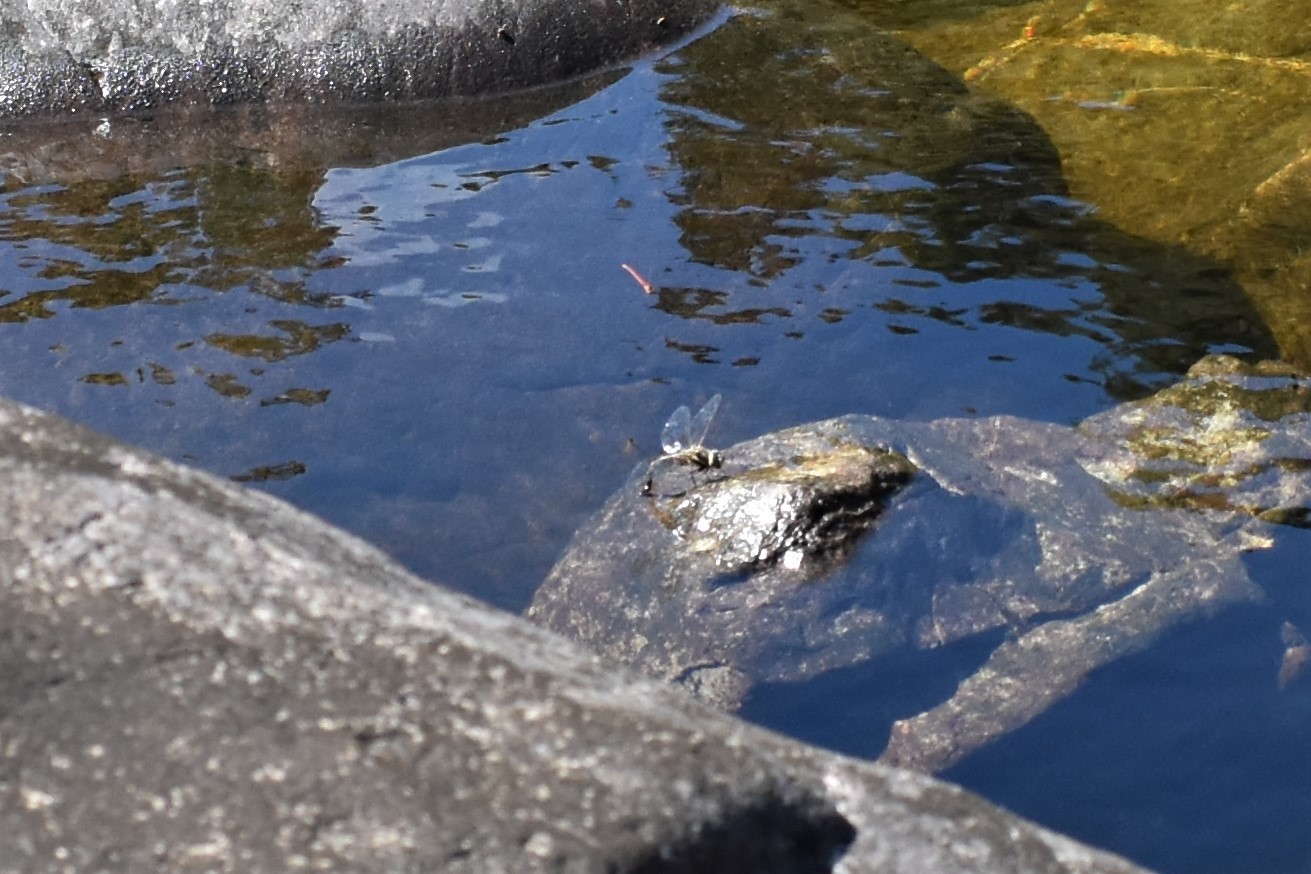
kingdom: Animalia
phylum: Arthropoda
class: Insecta
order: Odonata
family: Aeshnidae
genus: Aeshna
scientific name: Aeshna brevistyla
